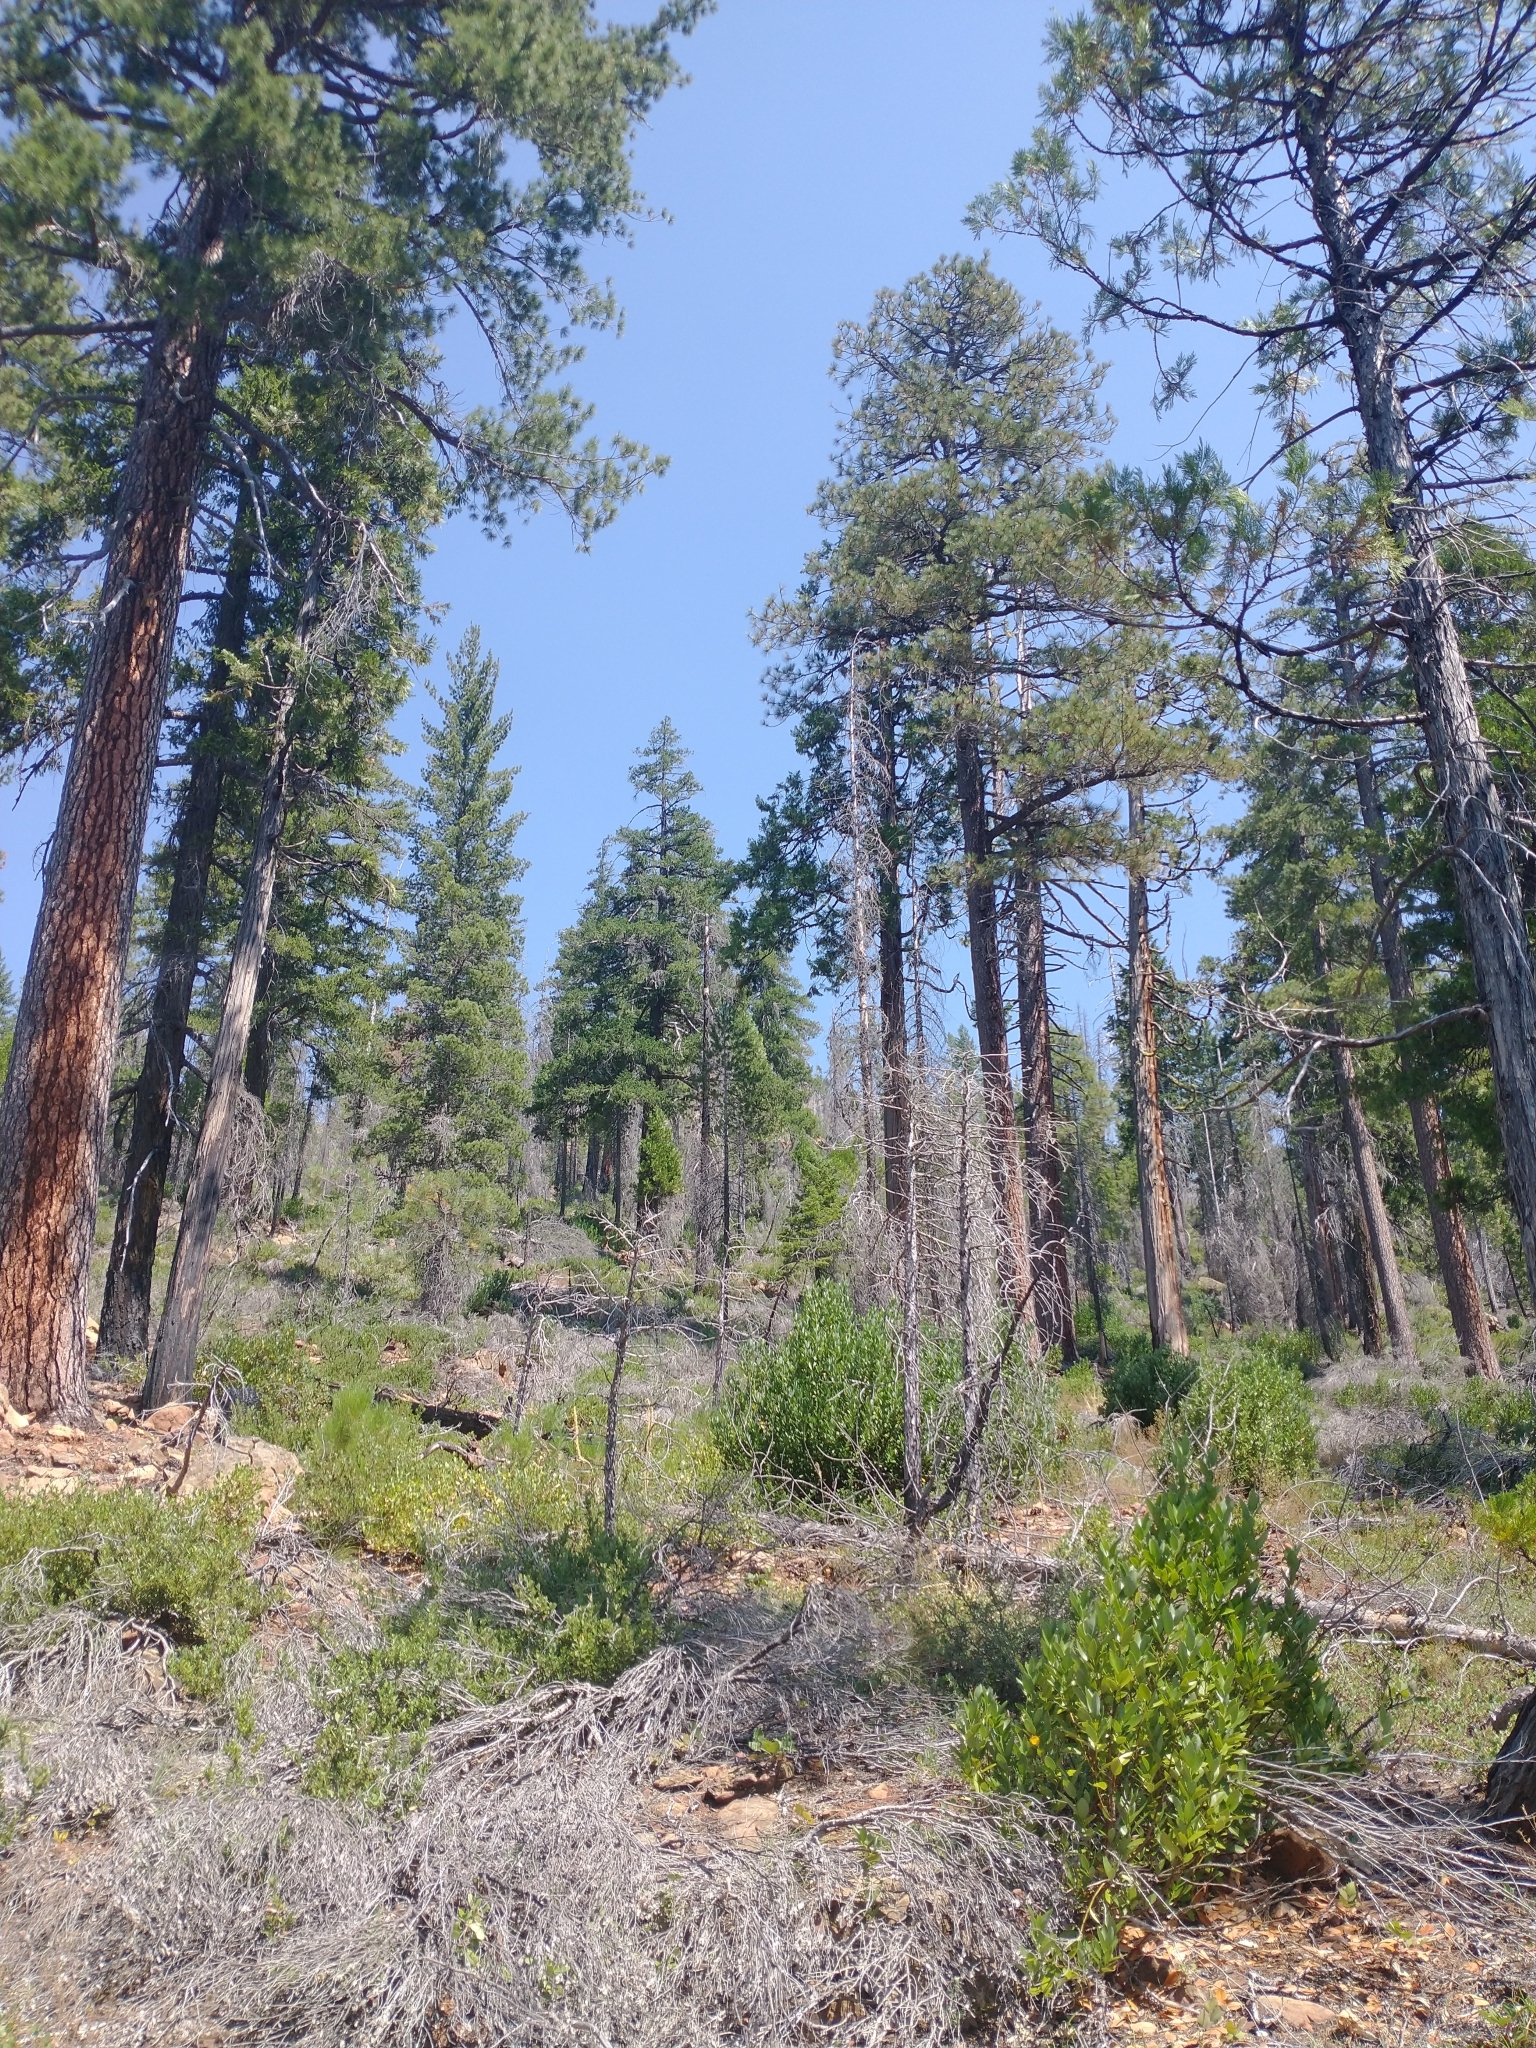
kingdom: Plantae
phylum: Tracheophyta
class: Magnoliopsida
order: Laurales
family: Lauraceae
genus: Umbellularia
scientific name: Umbellularia californica
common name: California bay
